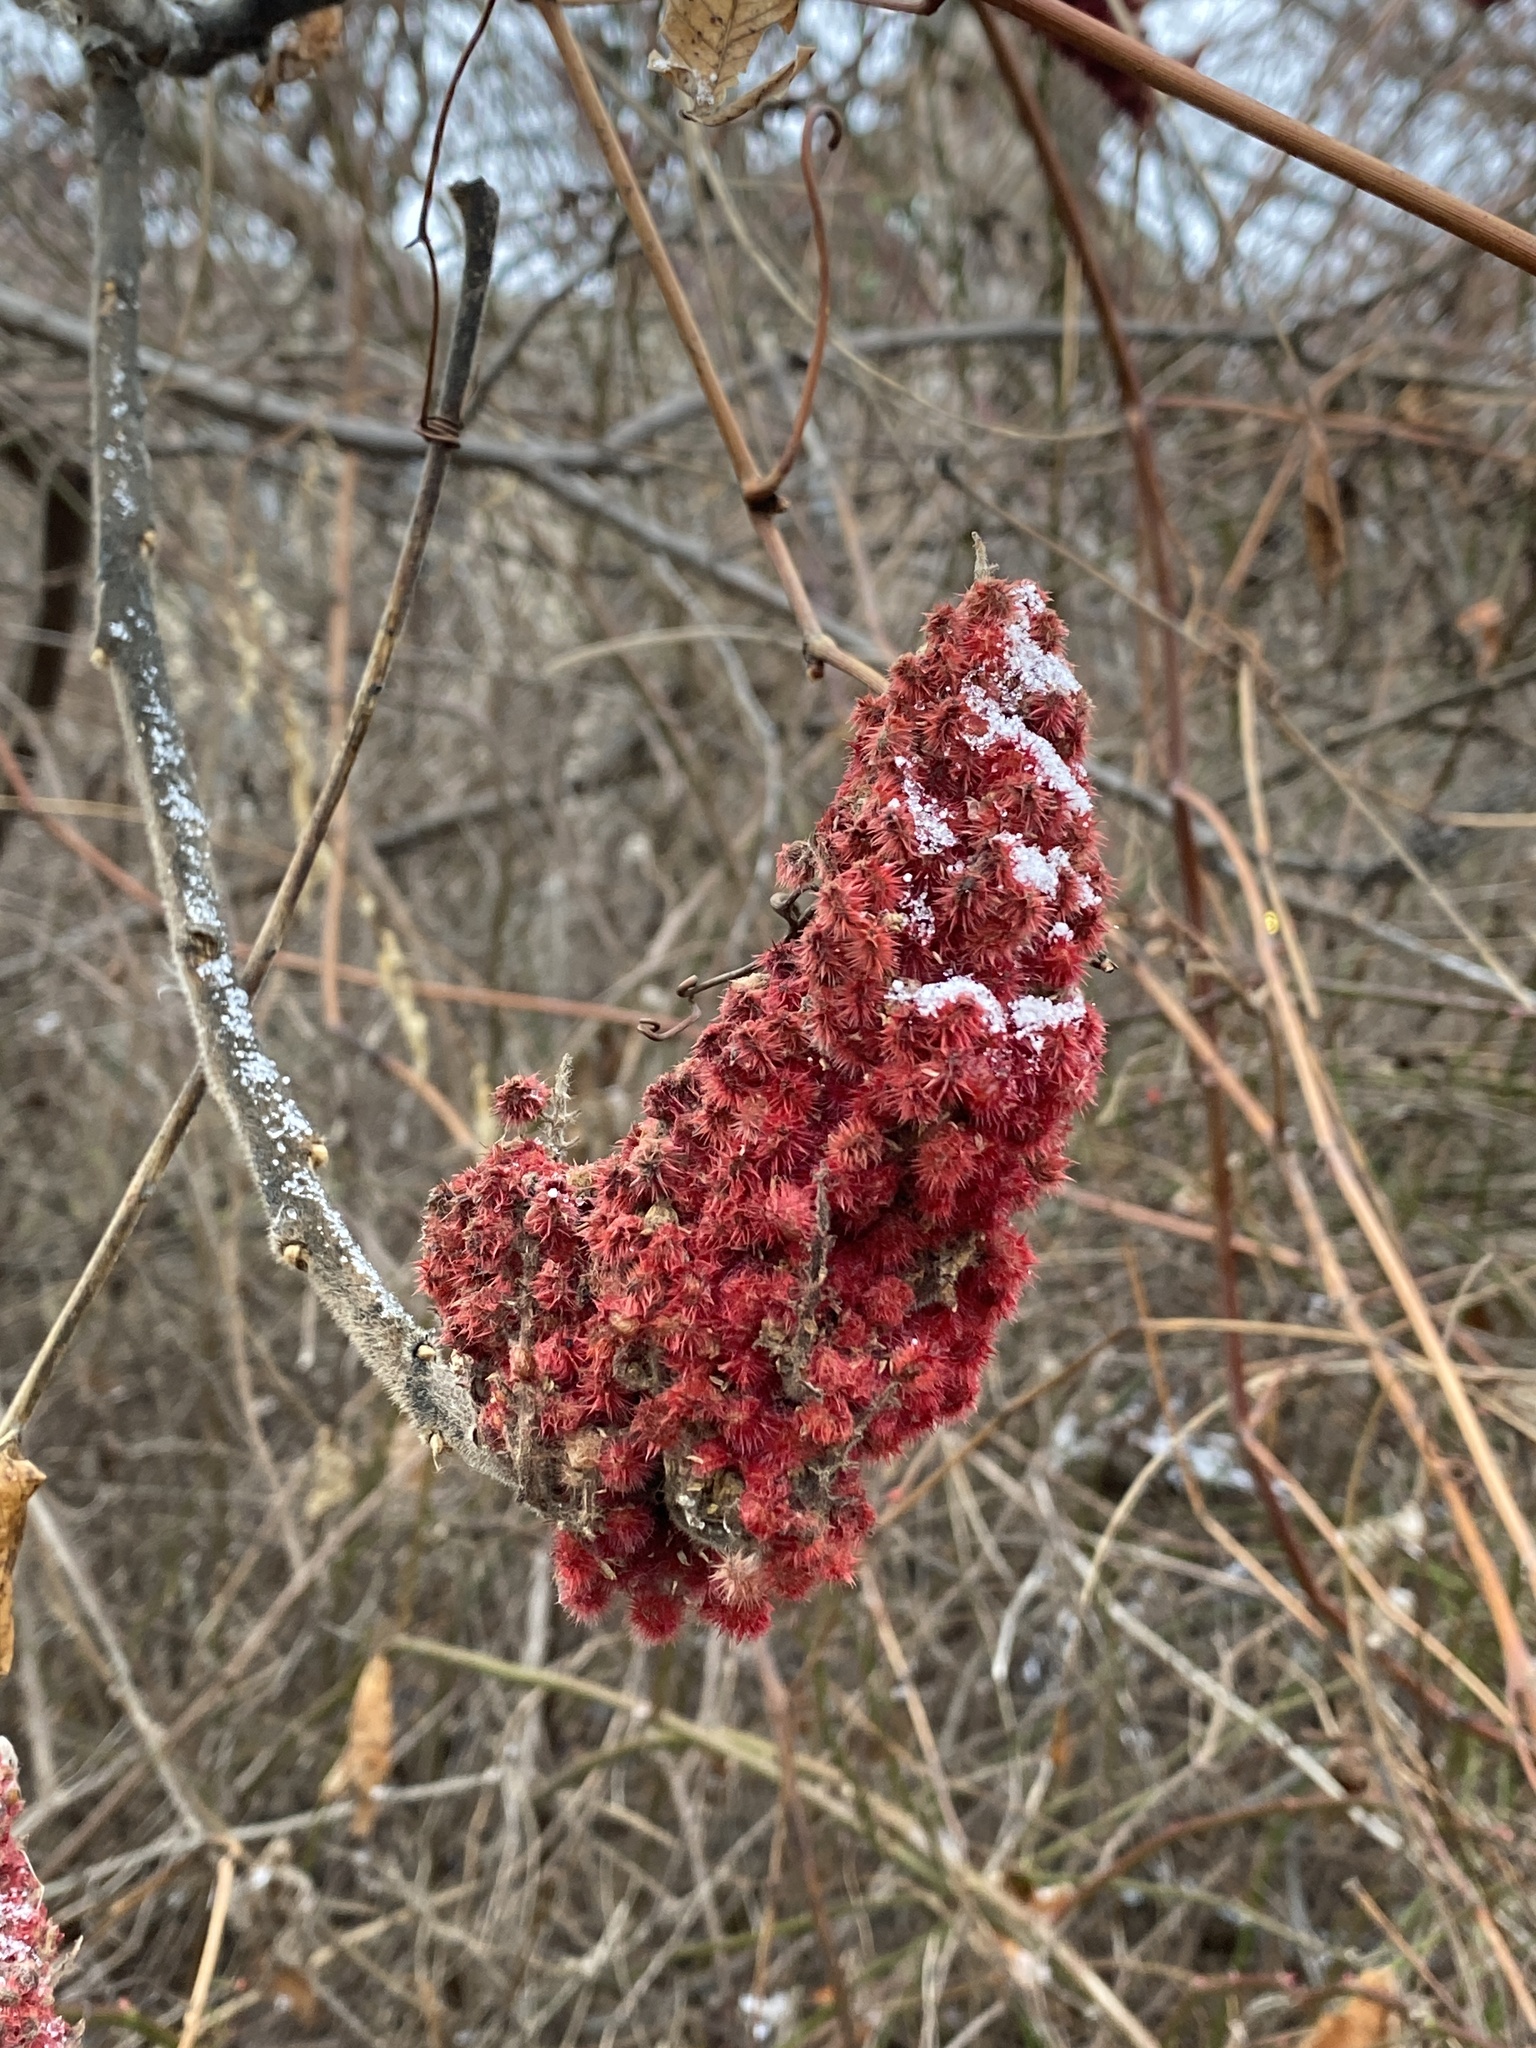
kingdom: Plantae
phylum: Tracheophyta
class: Magnoliopsida
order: Sapindales
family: Anacardiaceae
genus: Rhus
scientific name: Rhus typhina
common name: Staghorn sumac
